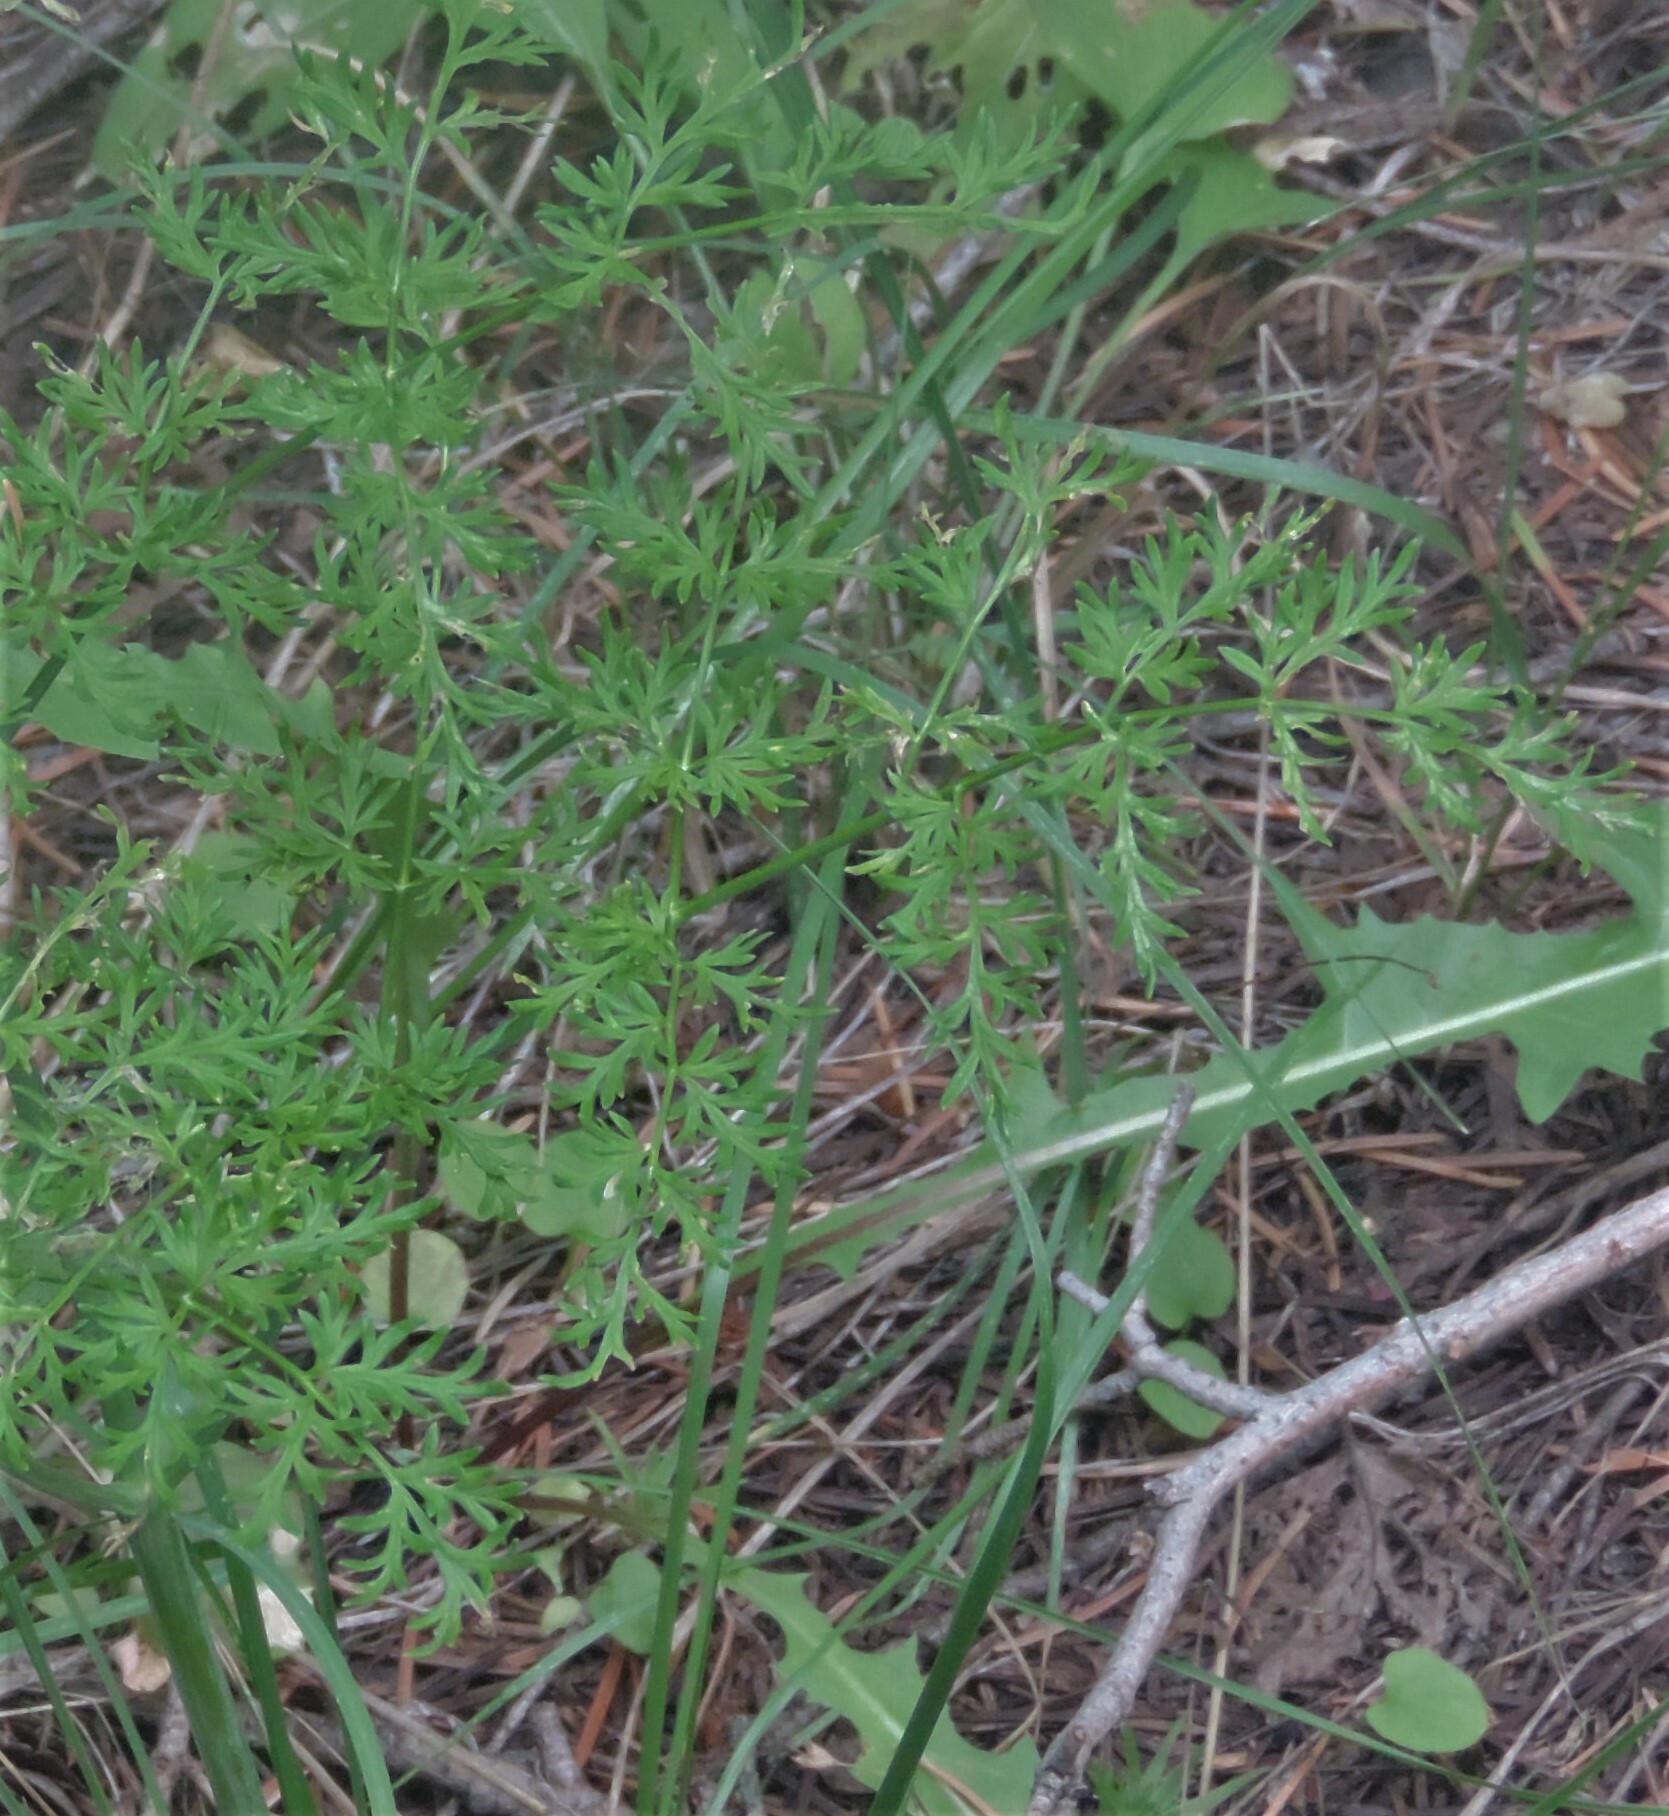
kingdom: Plantae
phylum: Tracheophyta
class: Magnoliopsida
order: Apiales
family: Apiaceae
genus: Lomatium
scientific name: Lomatium multifidum
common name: Carrot-leaved biscuitroot
